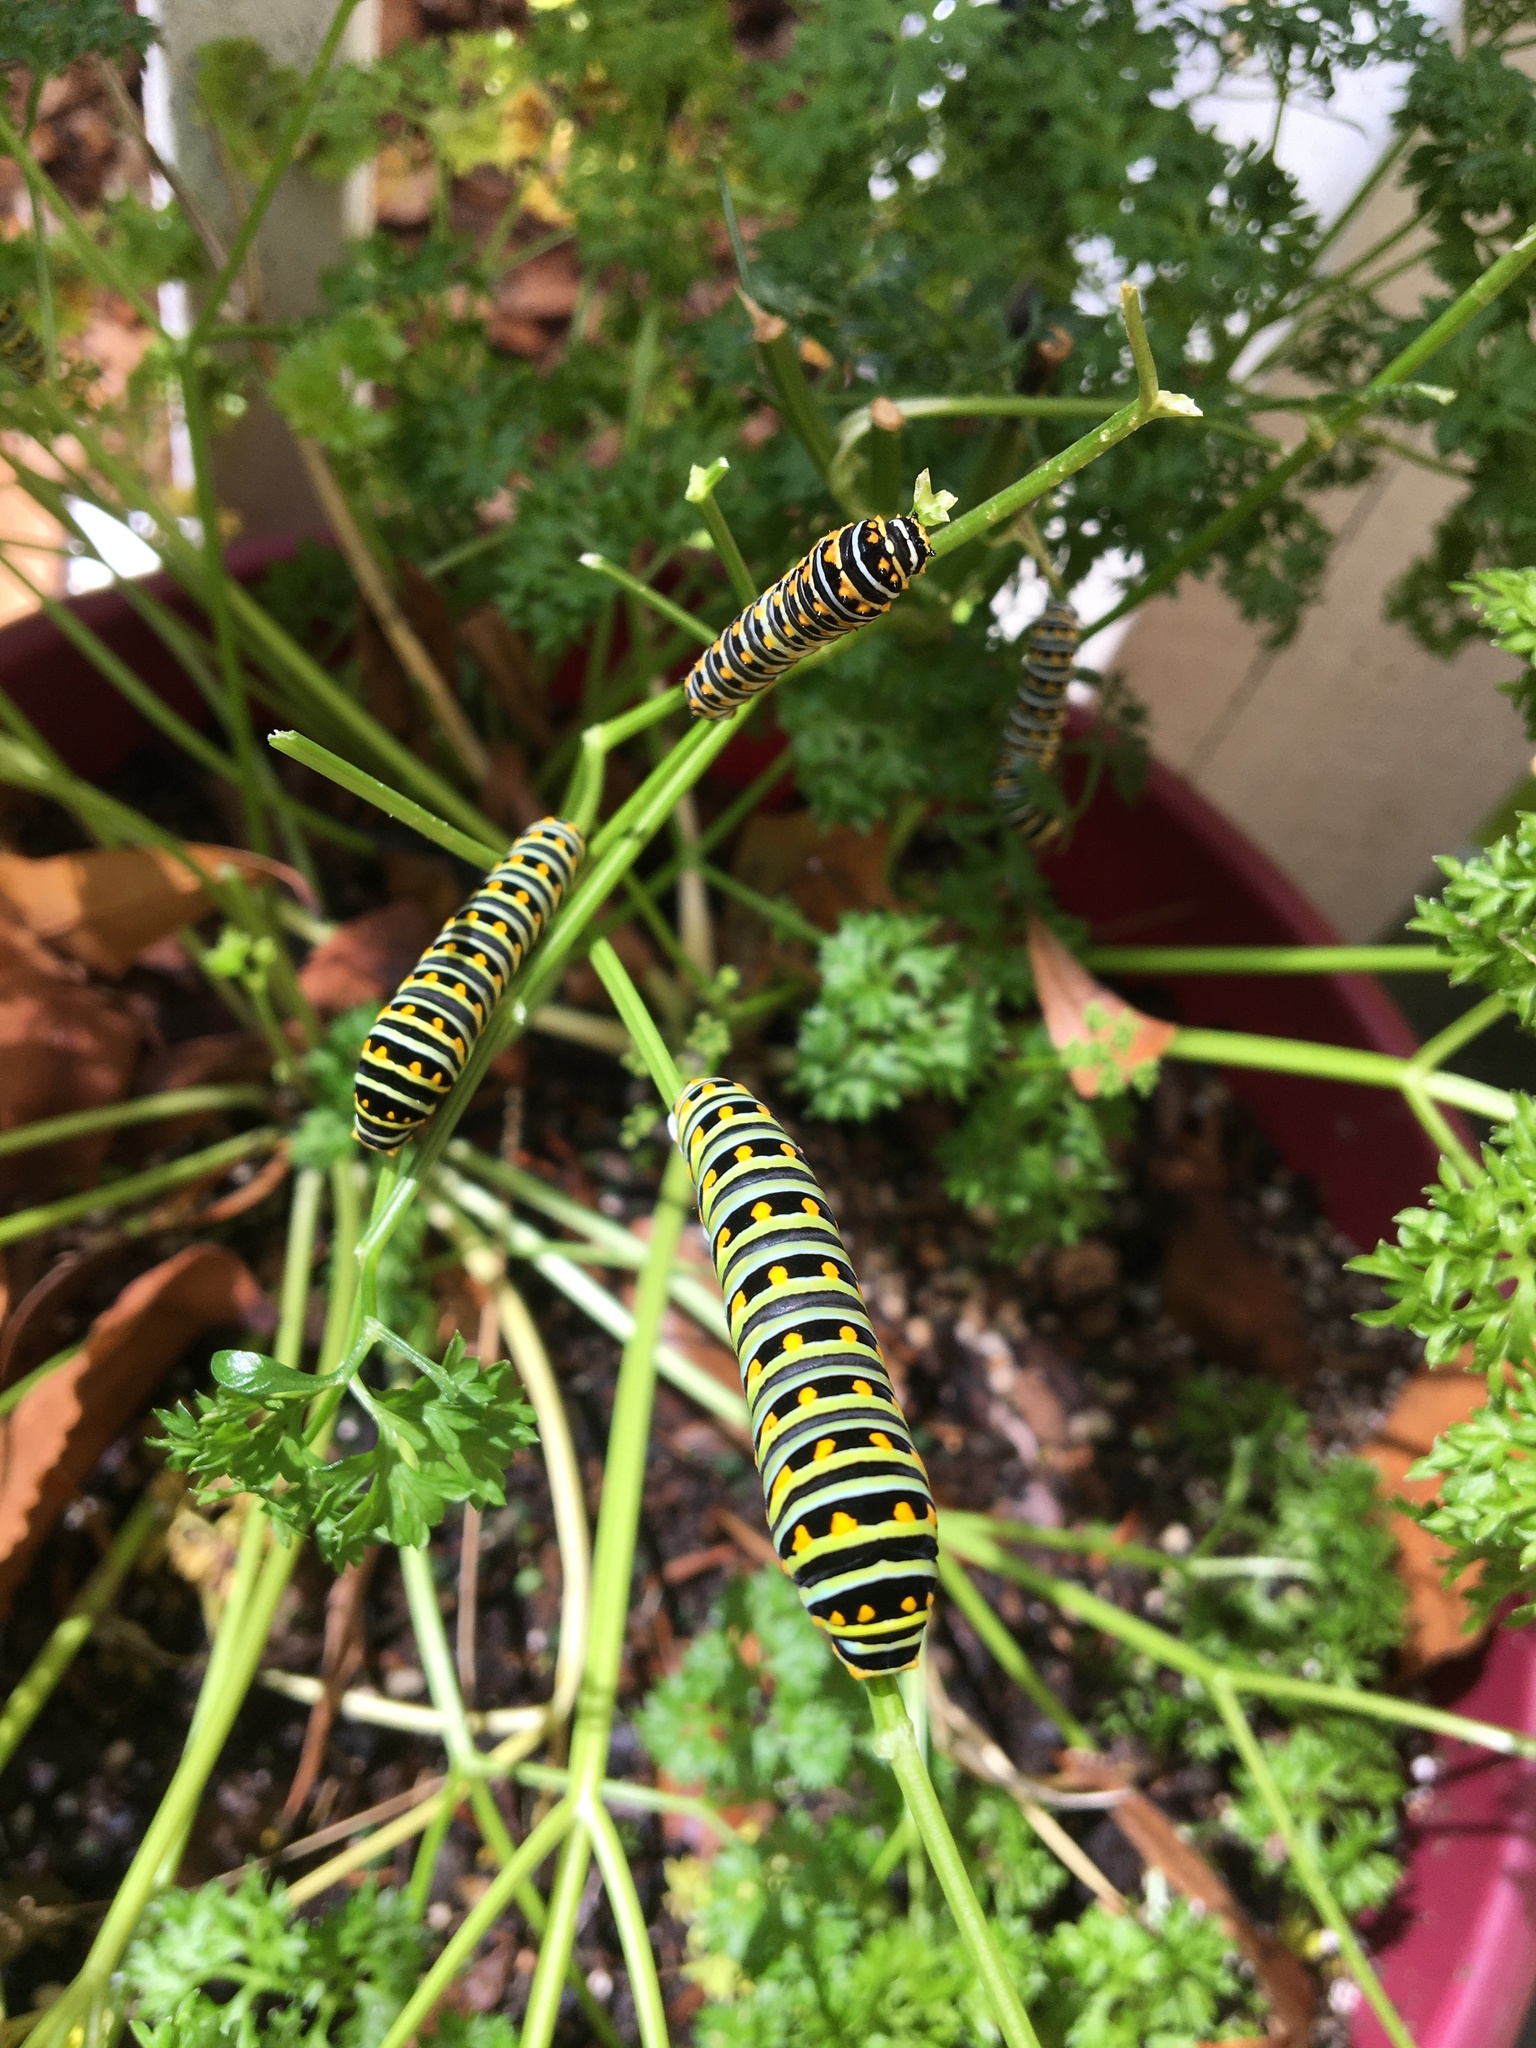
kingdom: Animalia
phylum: Arthropoda
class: Insecta
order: Lepidoptera
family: Papilionidae
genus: Papilio
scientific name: Papilio polyxenes
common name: Black swallowtail
